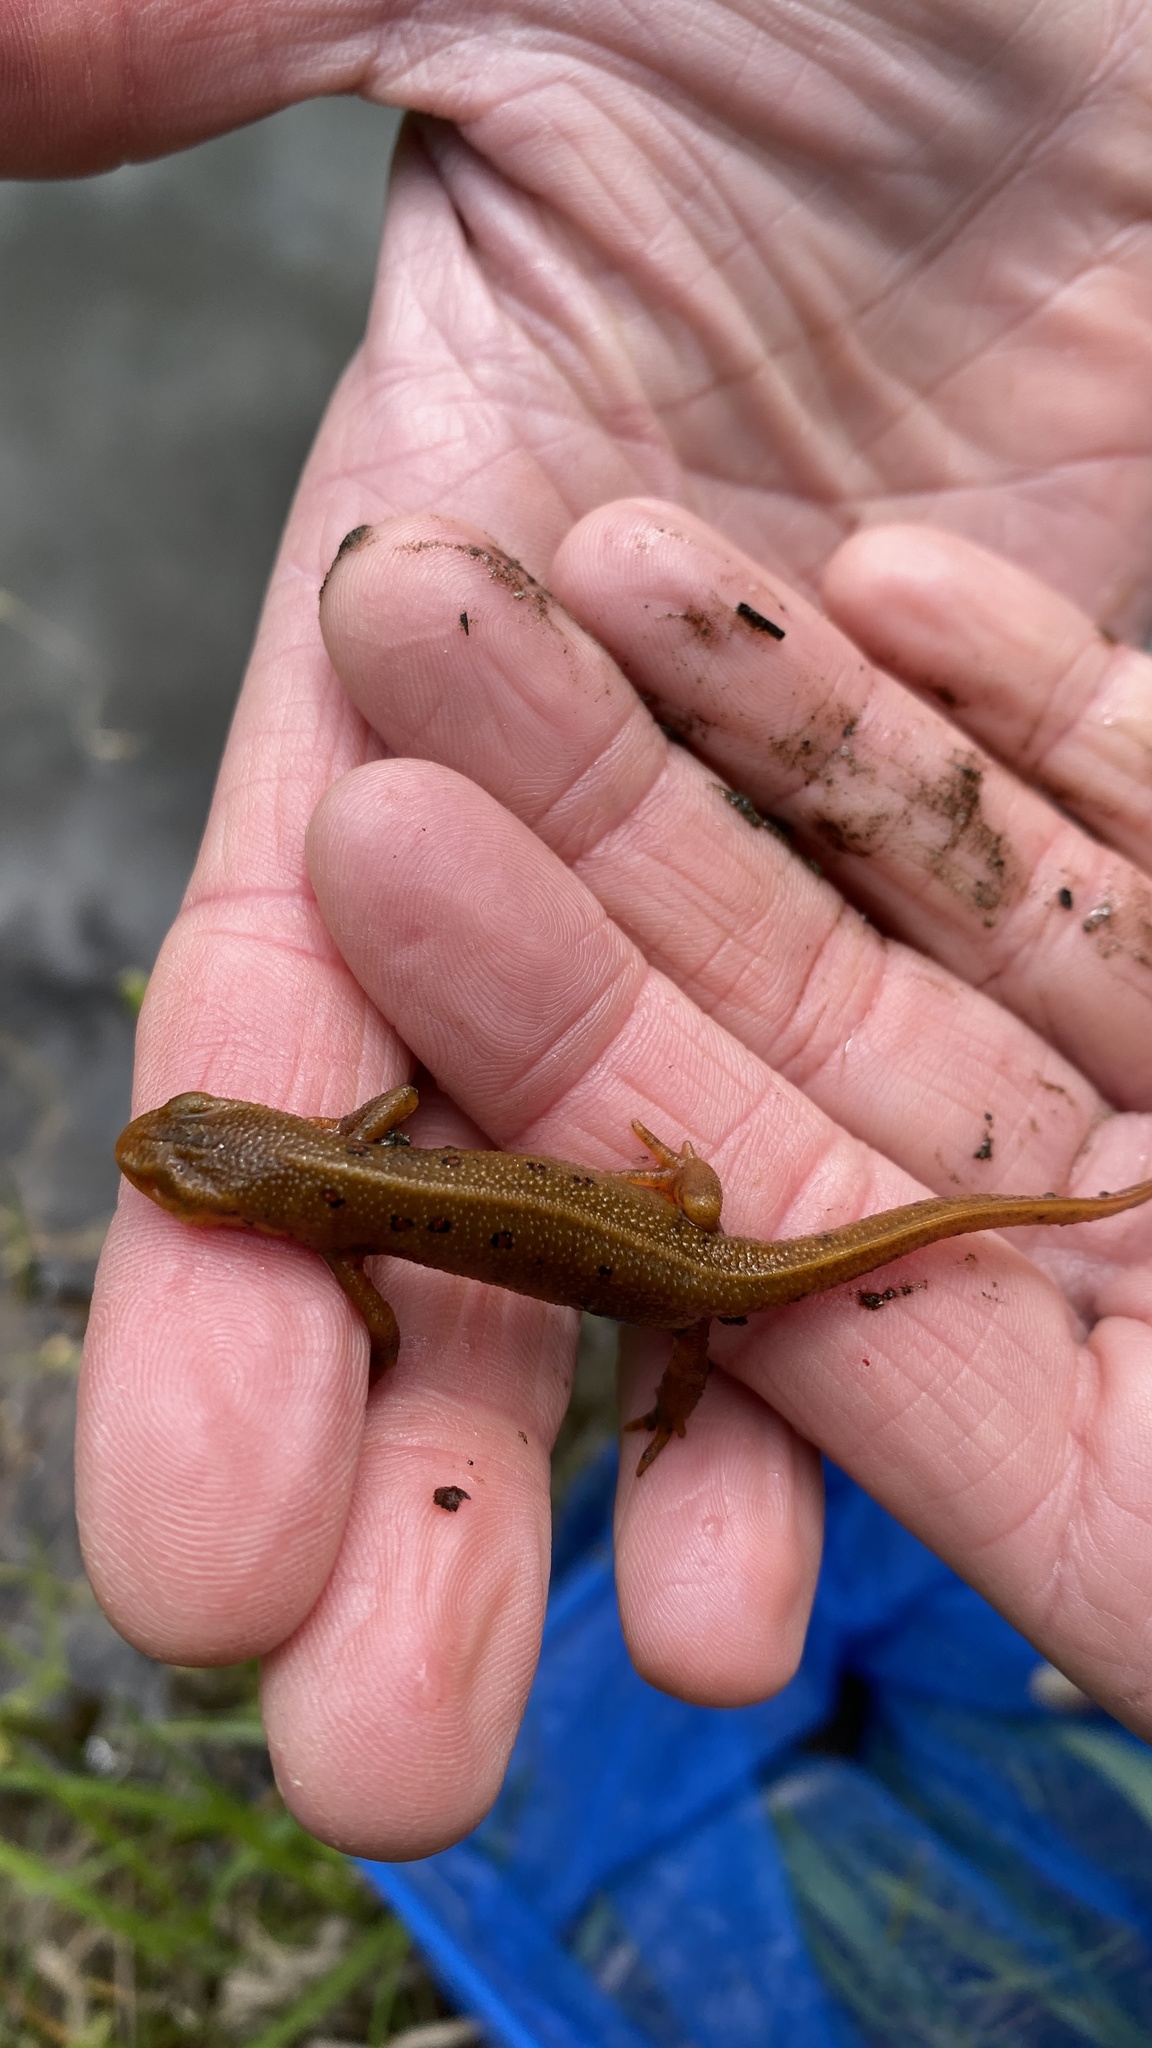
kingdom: Animalia
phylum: Chordata
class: Amphibia
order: Caudata
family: Salamandridae
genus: Notophthalmus
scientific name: Notophthalmus viridescens
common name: Eastern newt
